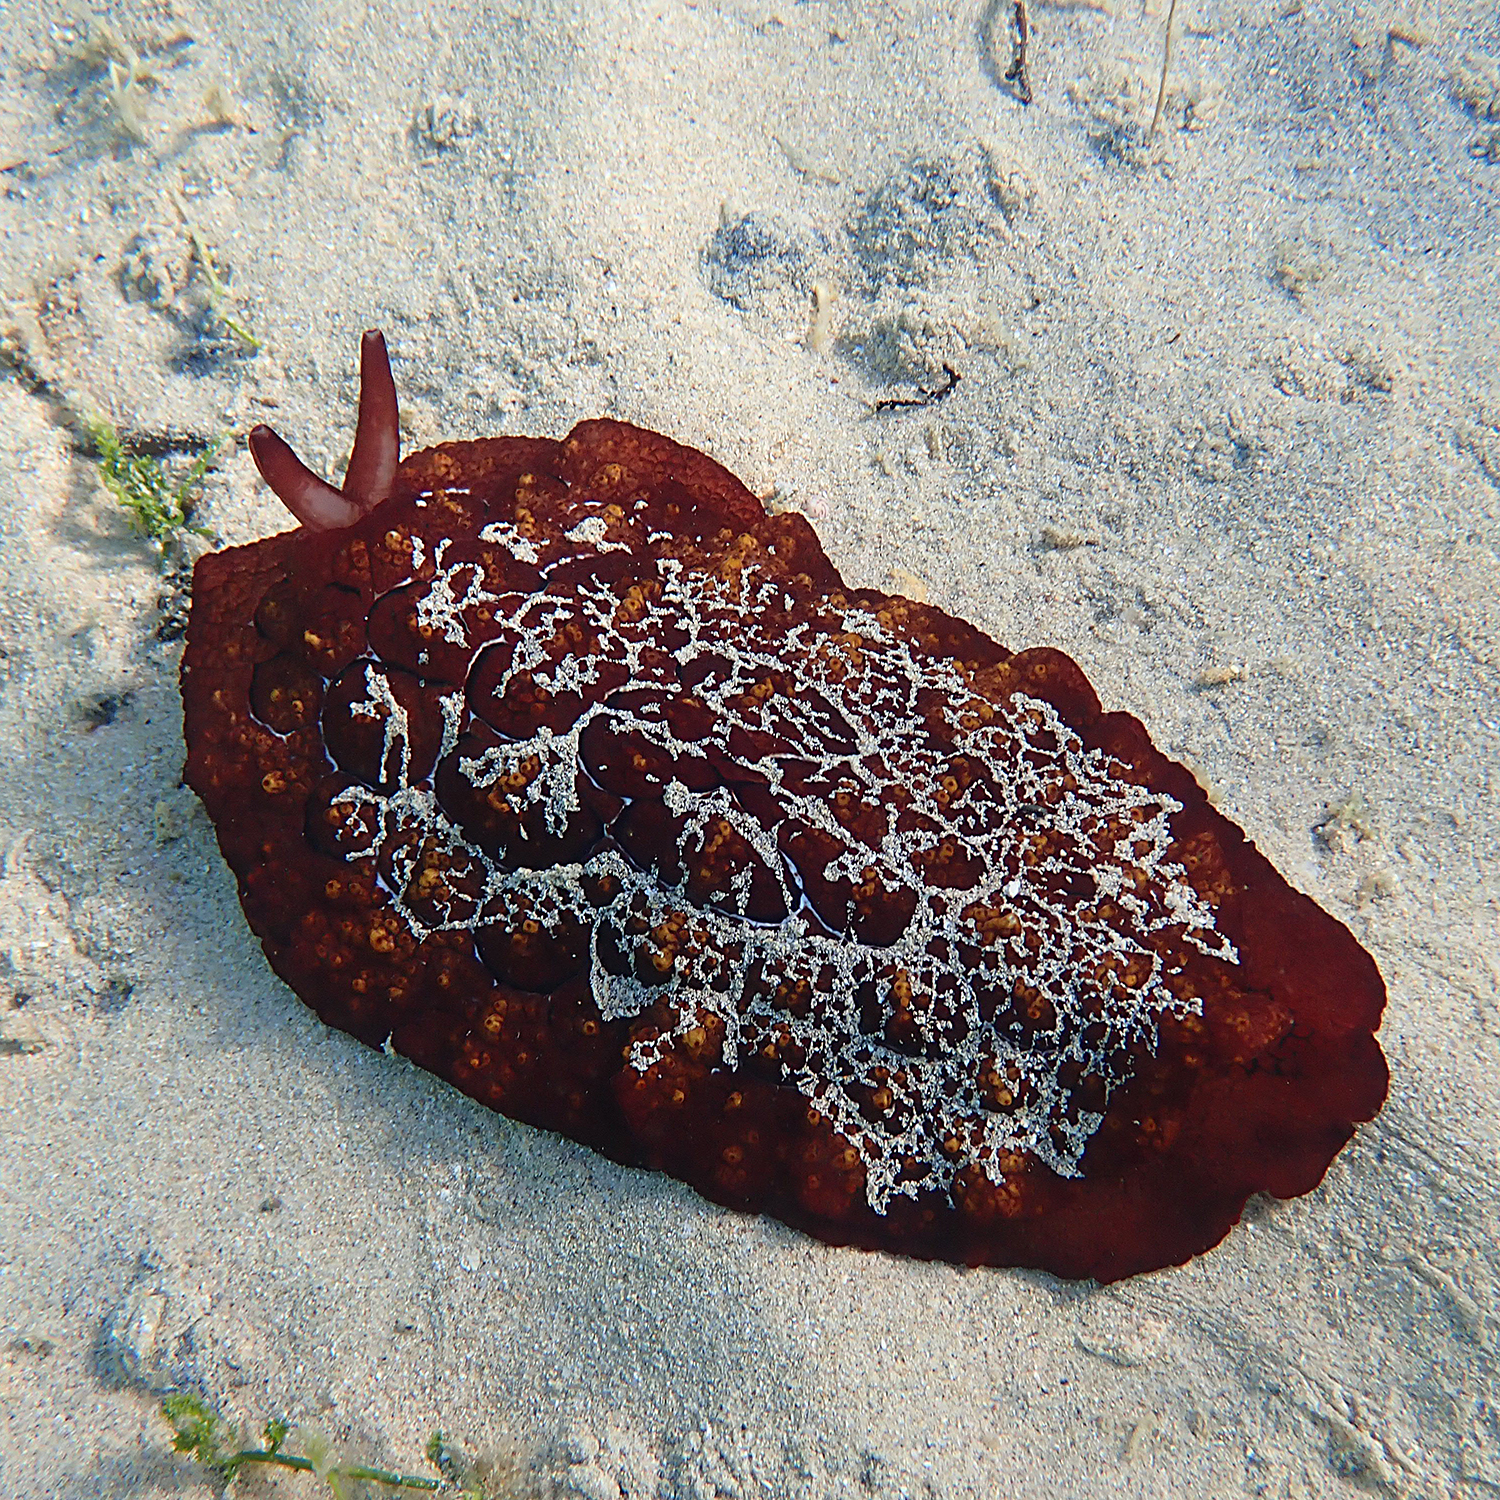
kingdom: Animalia
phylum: Mollusca
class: Gastropoda
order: Pleurobranchida
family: Pleurobranchidae
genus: Pleurobranchus
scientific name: Pleurobranchus forskalii
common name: Forskal's side-gilled sea slug
